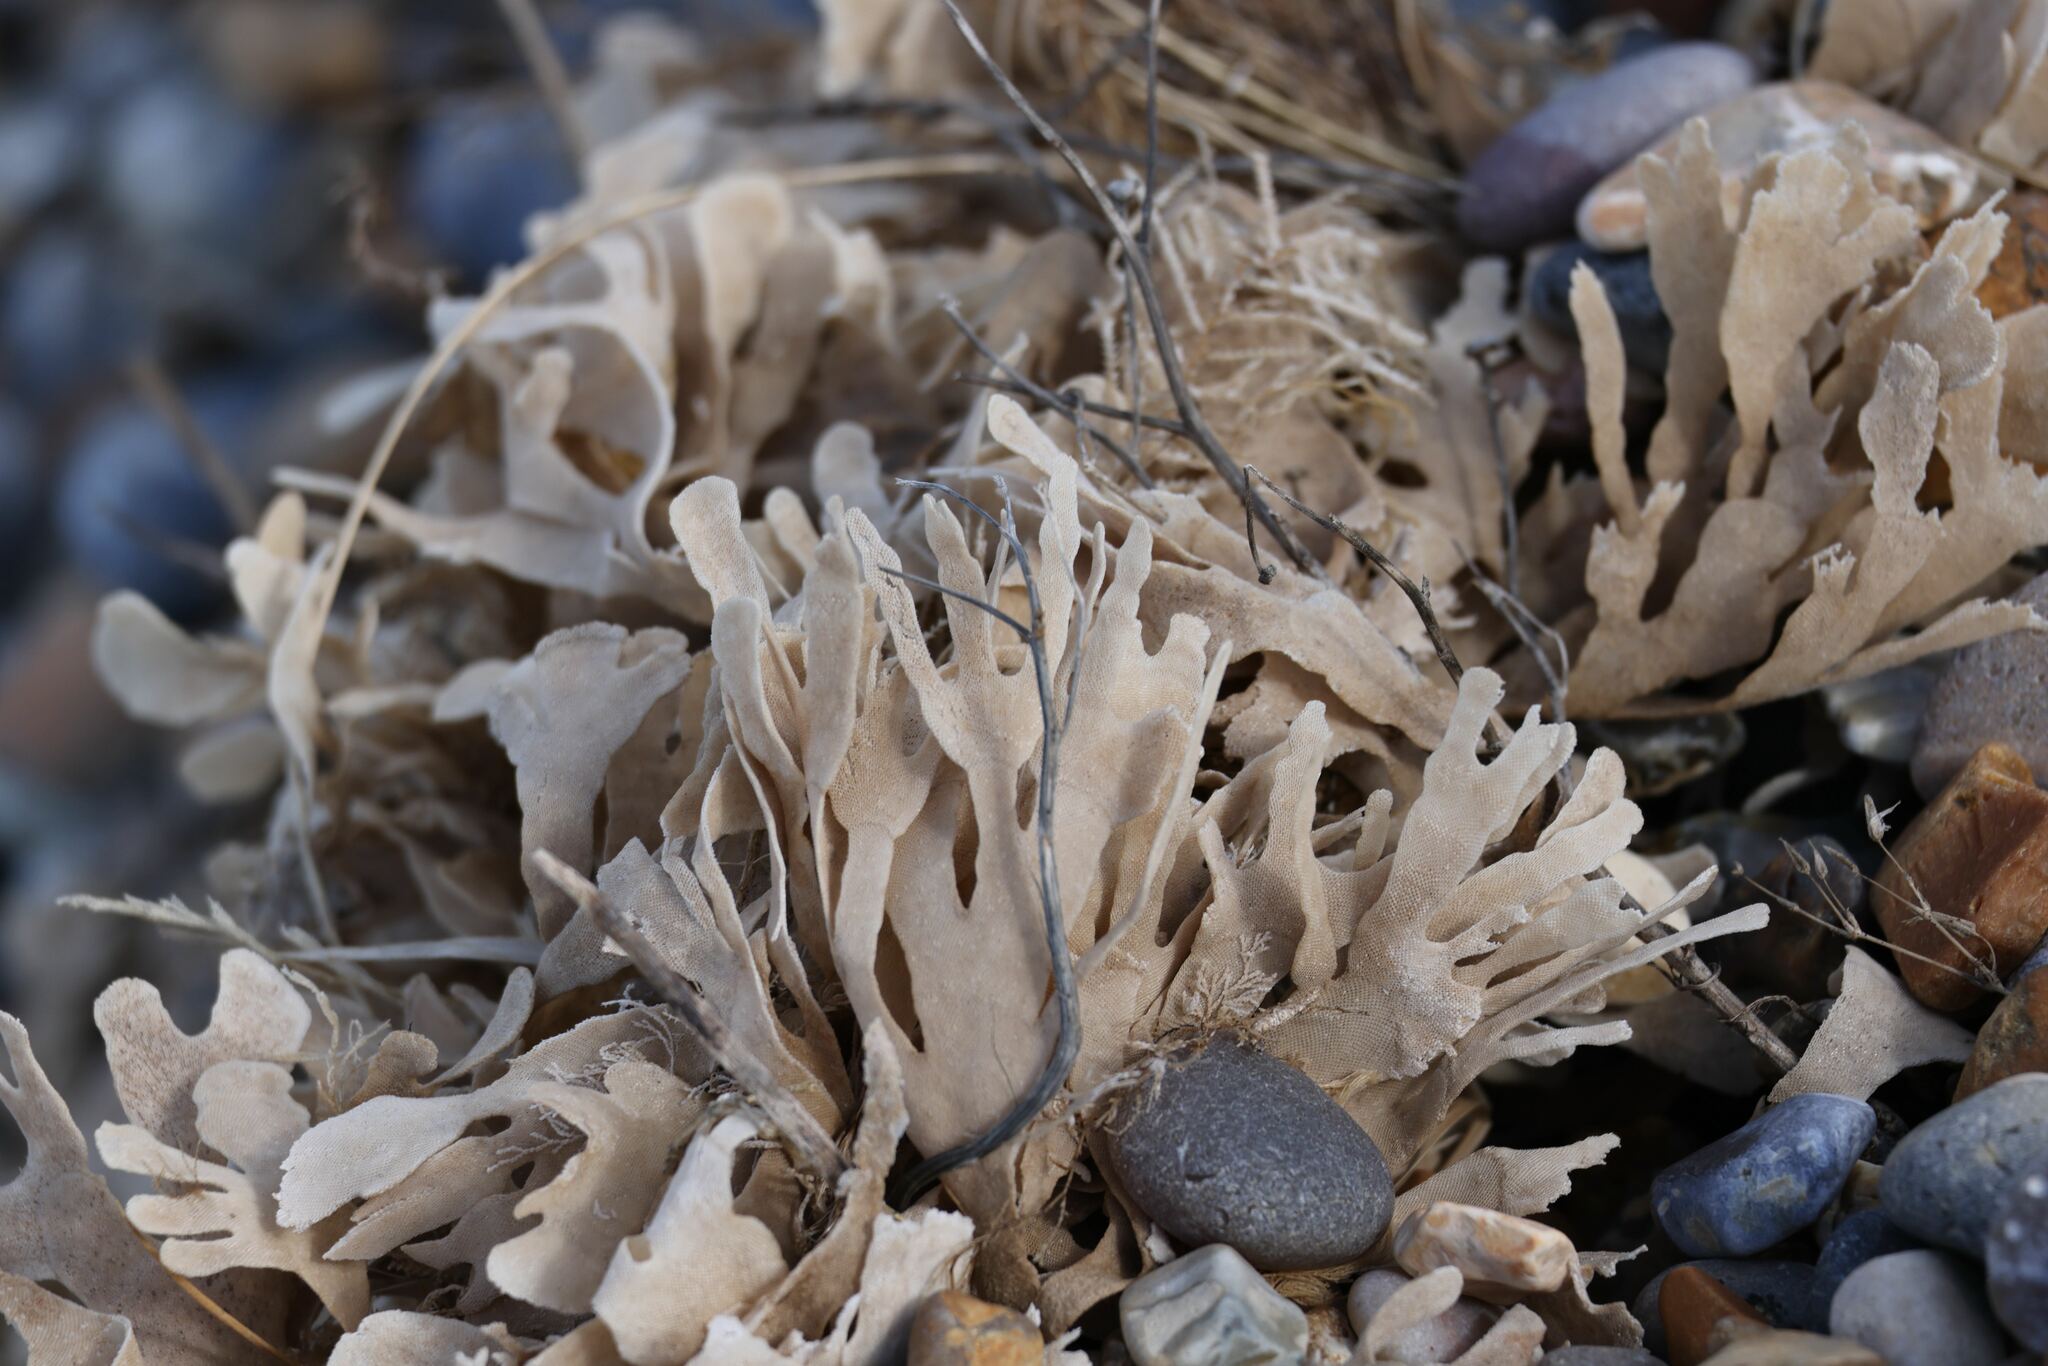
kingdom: Animalia
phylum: Bryozoa
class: Gymnolaemata
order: Cheilostomatida
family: Flustridae
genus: Flustra
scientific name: Flustra foliacea
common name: Hornwrack
